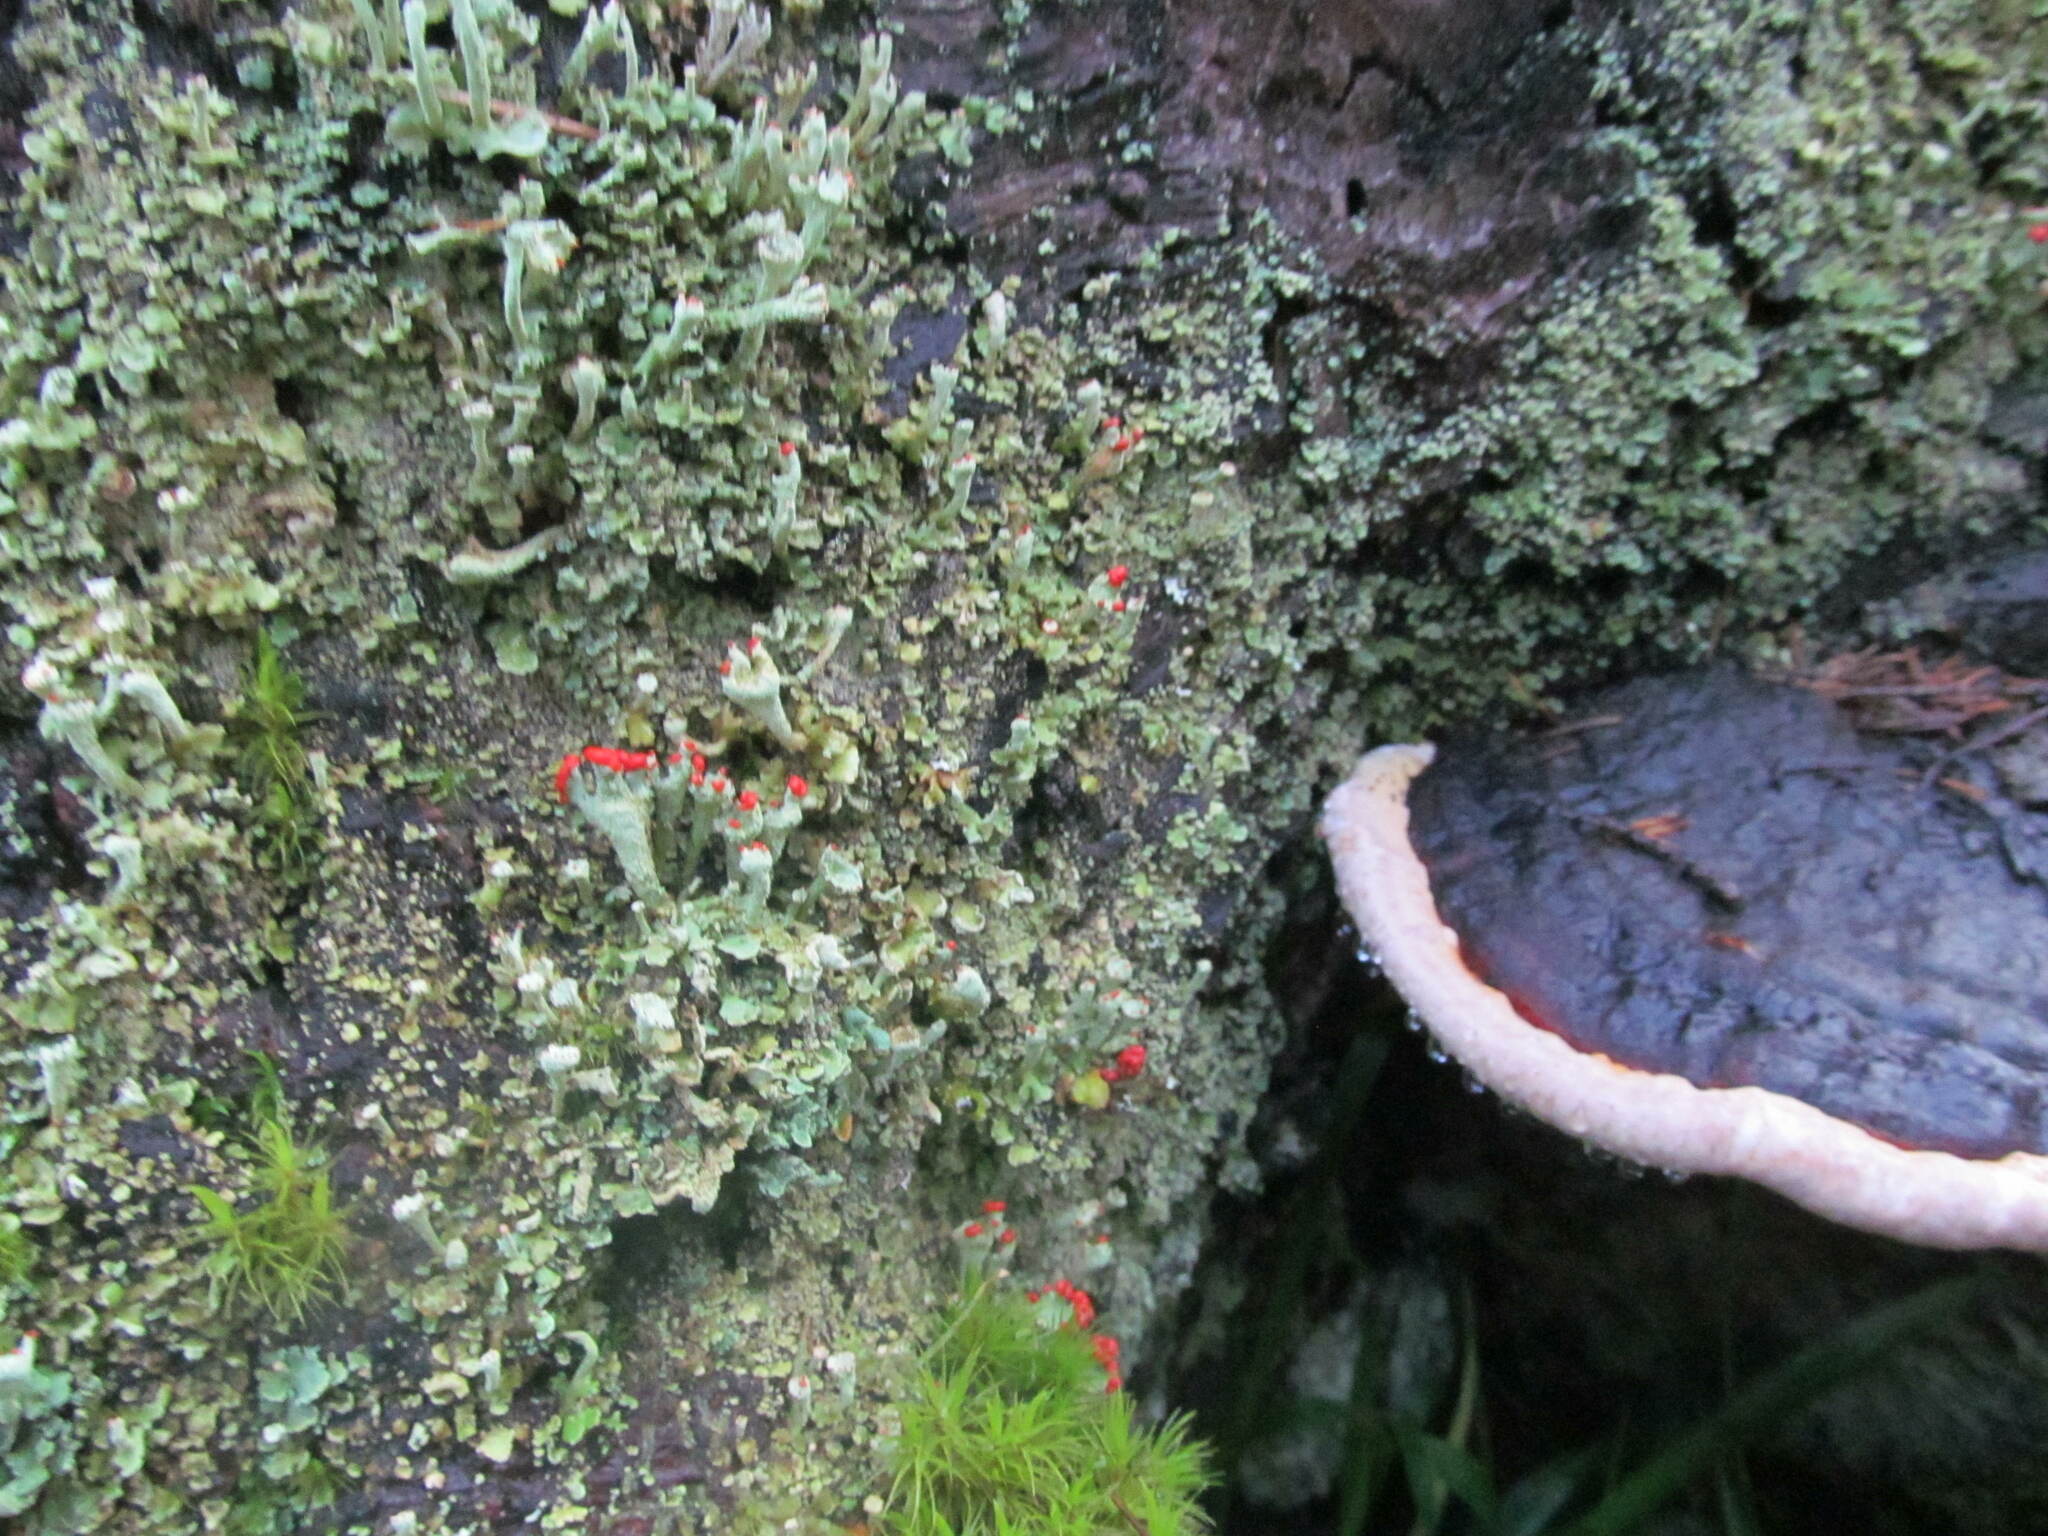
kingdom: Fungi
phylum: Basidiomycota
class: Agaricomycetes
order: Polyporales
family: Fomitopsidaceae
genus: Fomitopsis
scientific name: Fomitopsis pinicola
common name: Red-belted bracket
